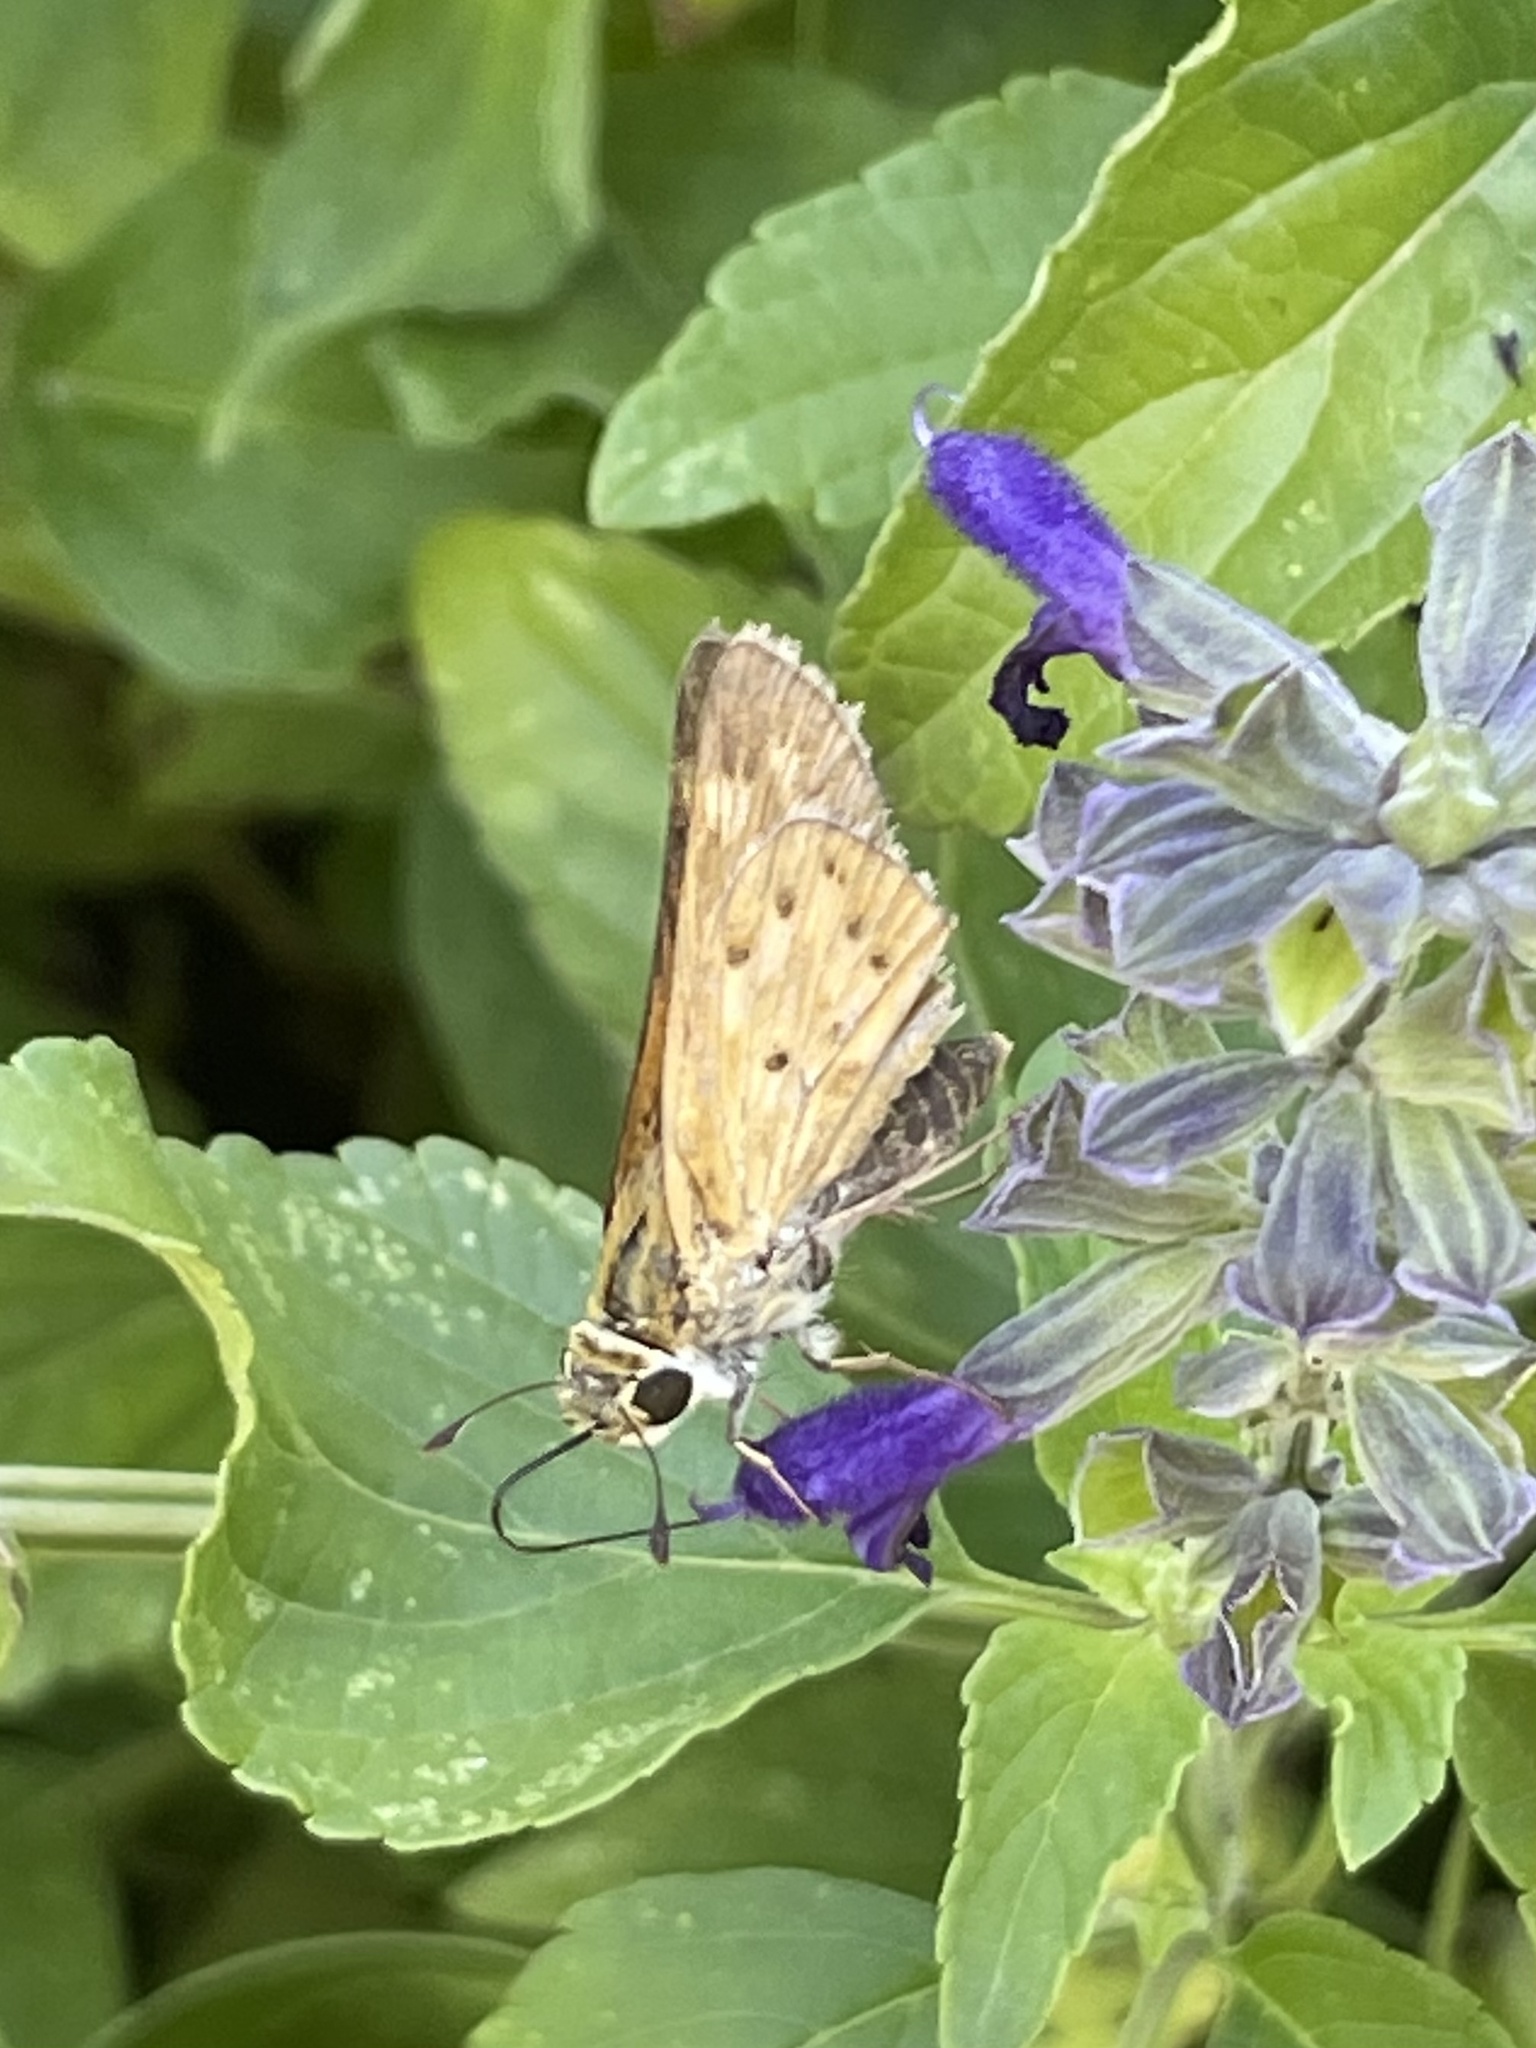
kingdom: Animalia
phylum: Arthropoda
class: Insecta
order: Lepidoptera
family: Hesperiidae
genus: Hylephila
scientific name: Hylephila phyleus
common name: Fiery skipper
